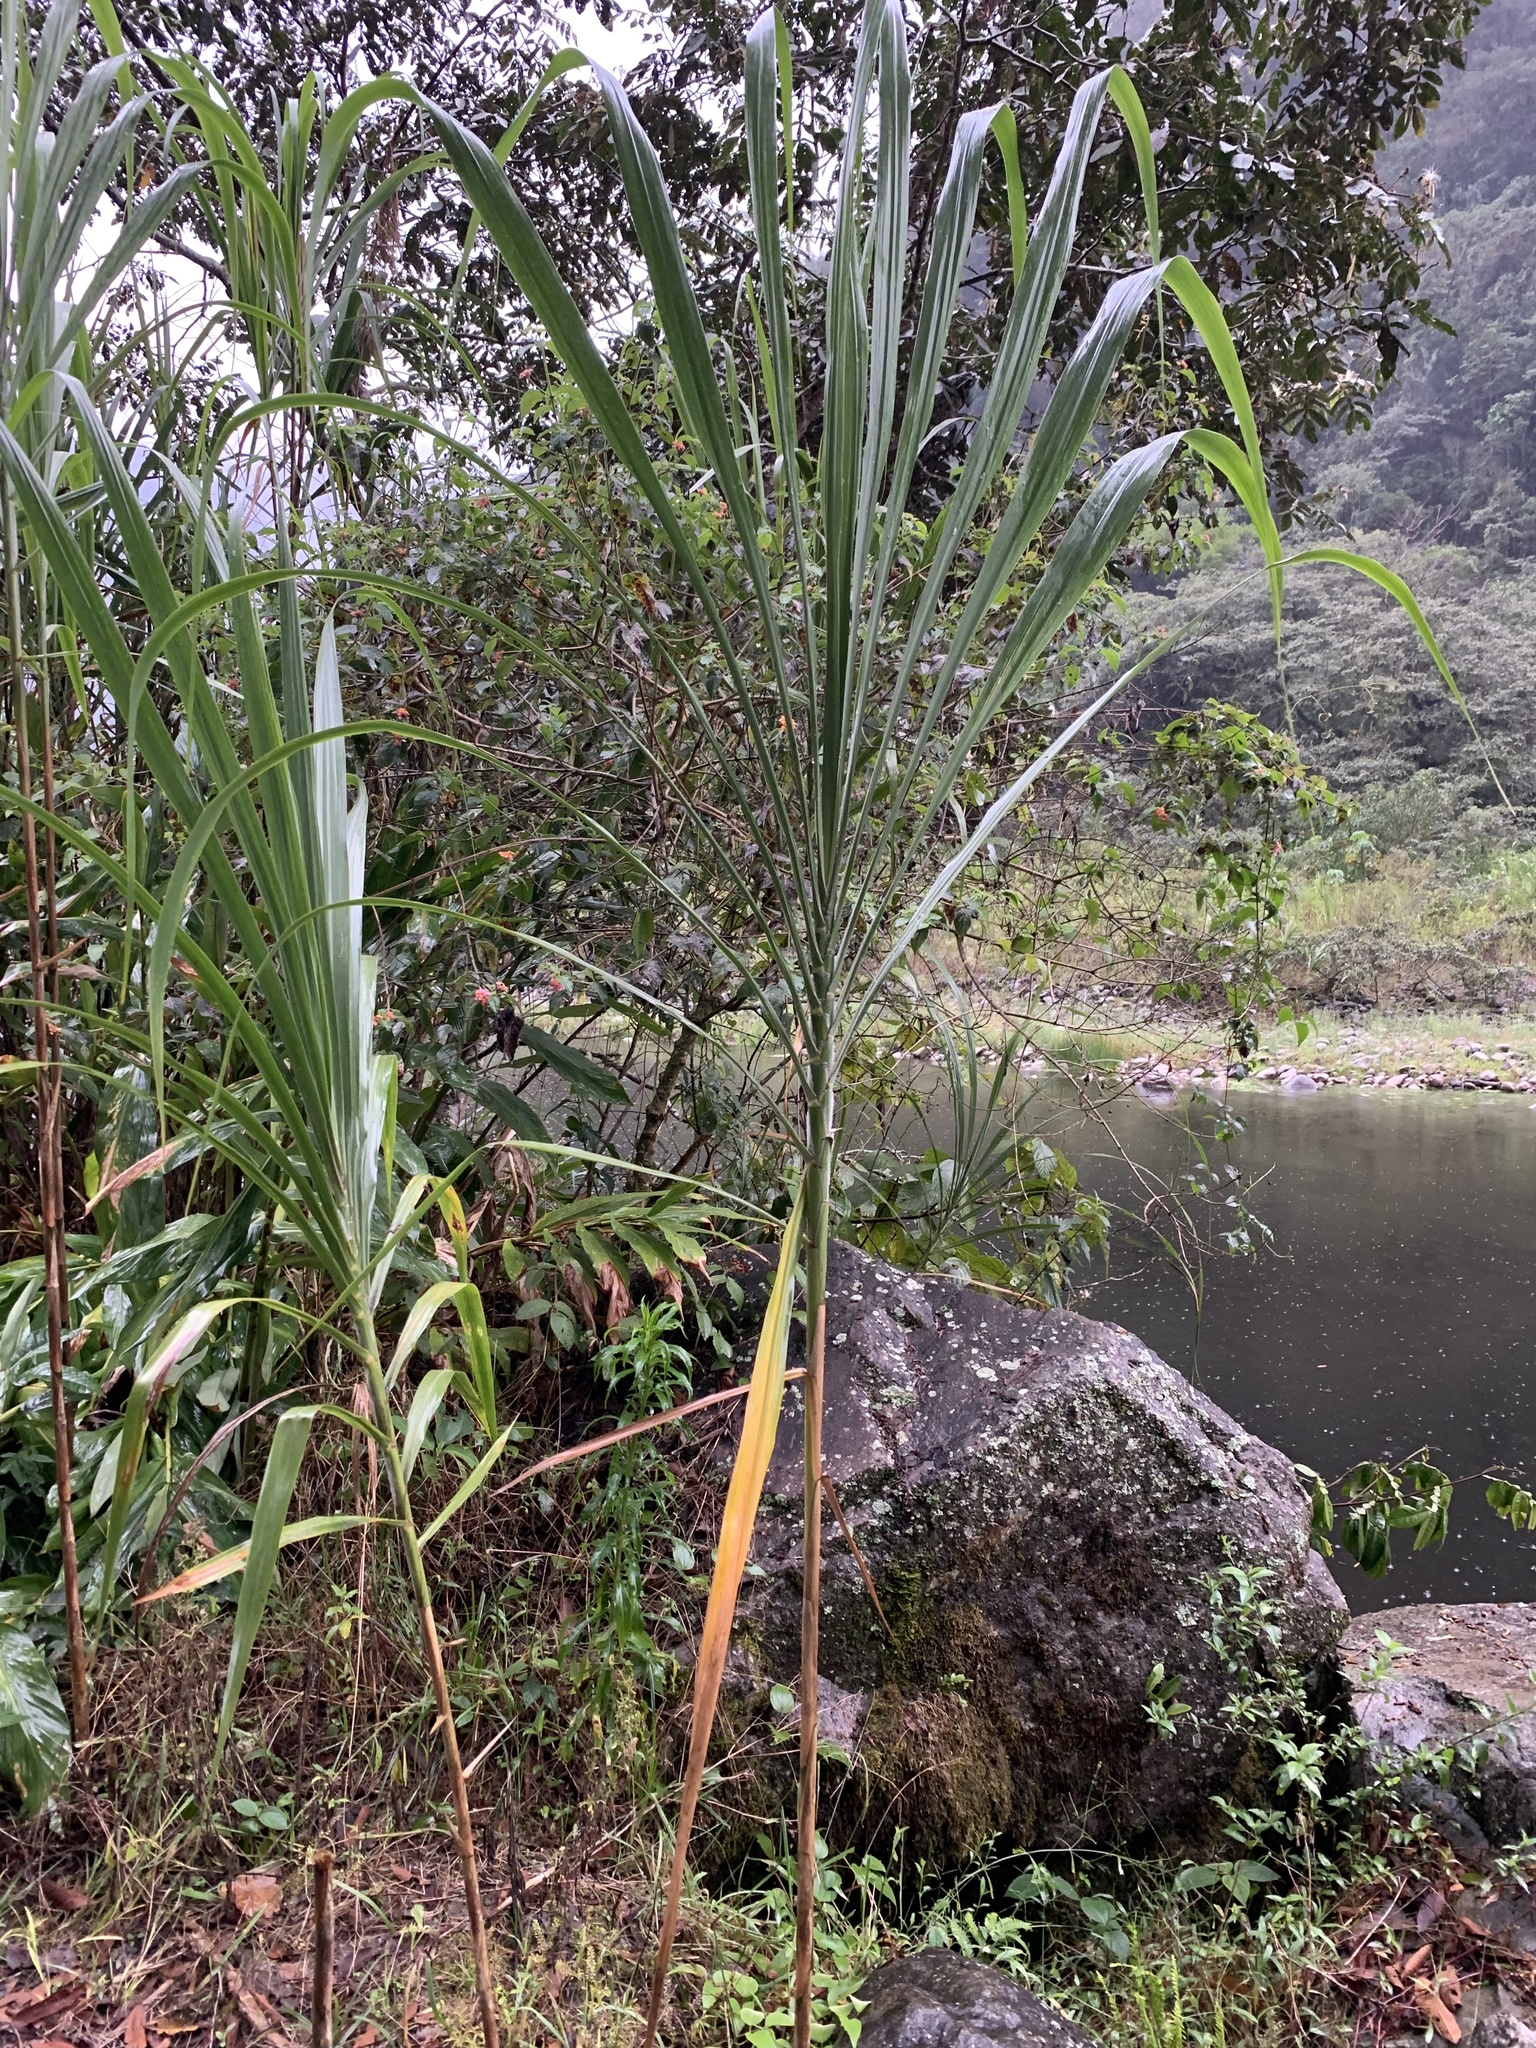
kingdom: Plantae
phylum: Tracheophyta
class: Liliopsida
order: Poales
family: Poaceae
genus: Gynerium
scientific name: Gynerium sagittatum
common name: Wild cane
